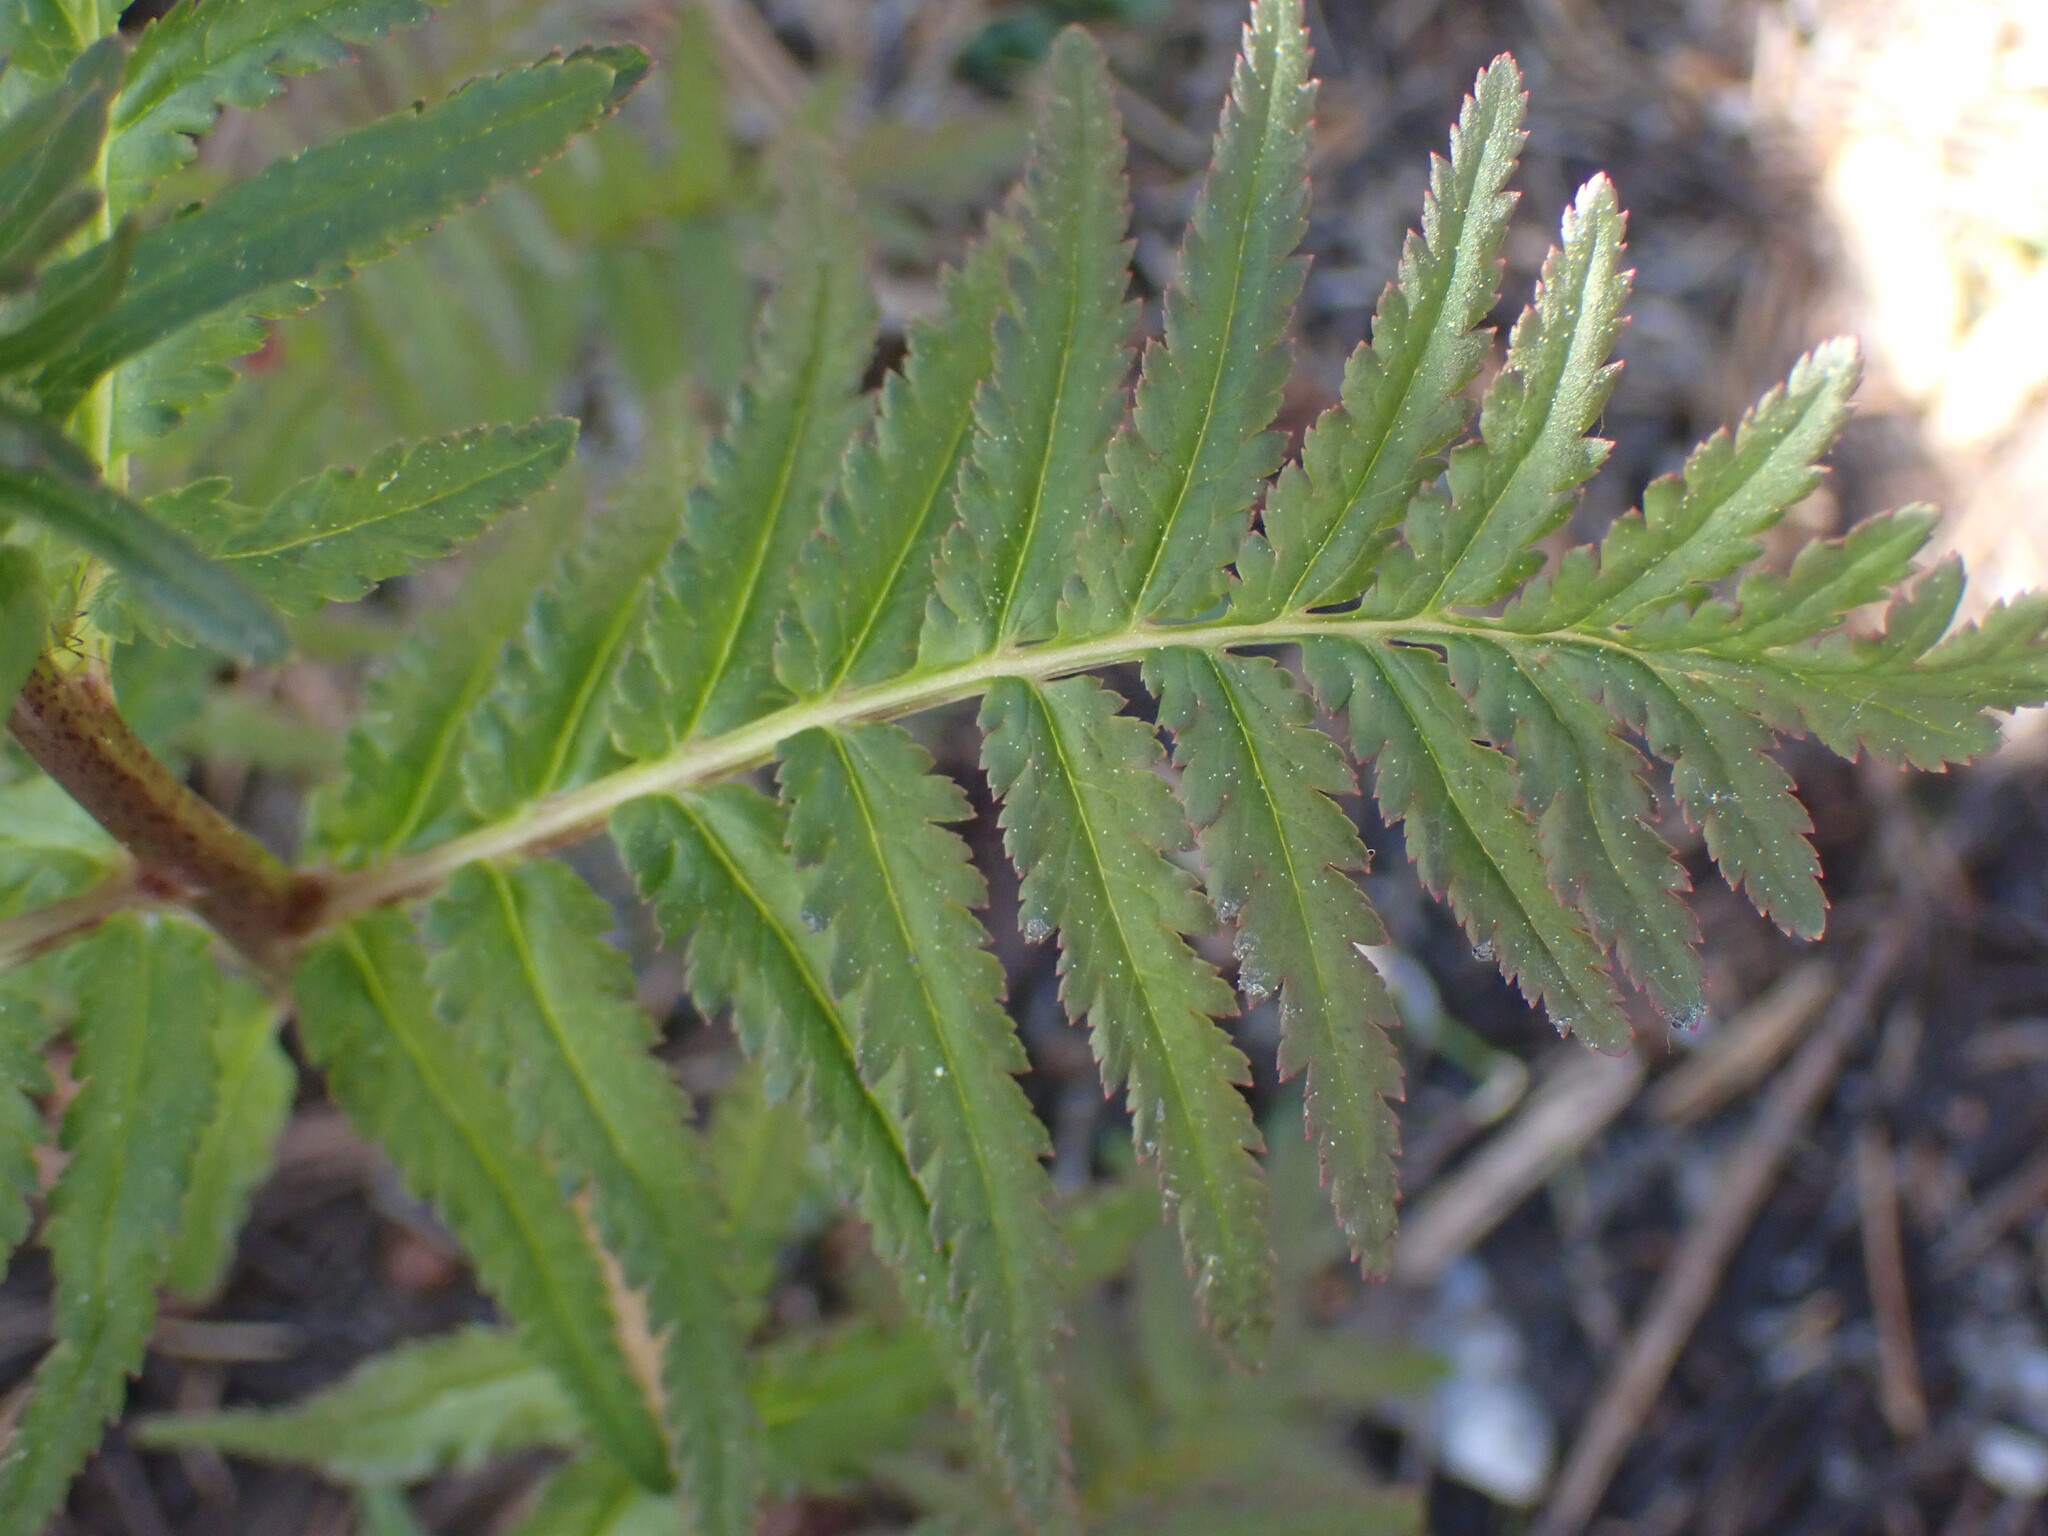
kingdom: Plantae
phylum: Tracheophyta
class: Magnoliopsida
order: Lamiales
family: Orobanchaceae
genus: Pedicularis
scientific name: Pedicularis bracteosa
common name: Bracted lousewort
